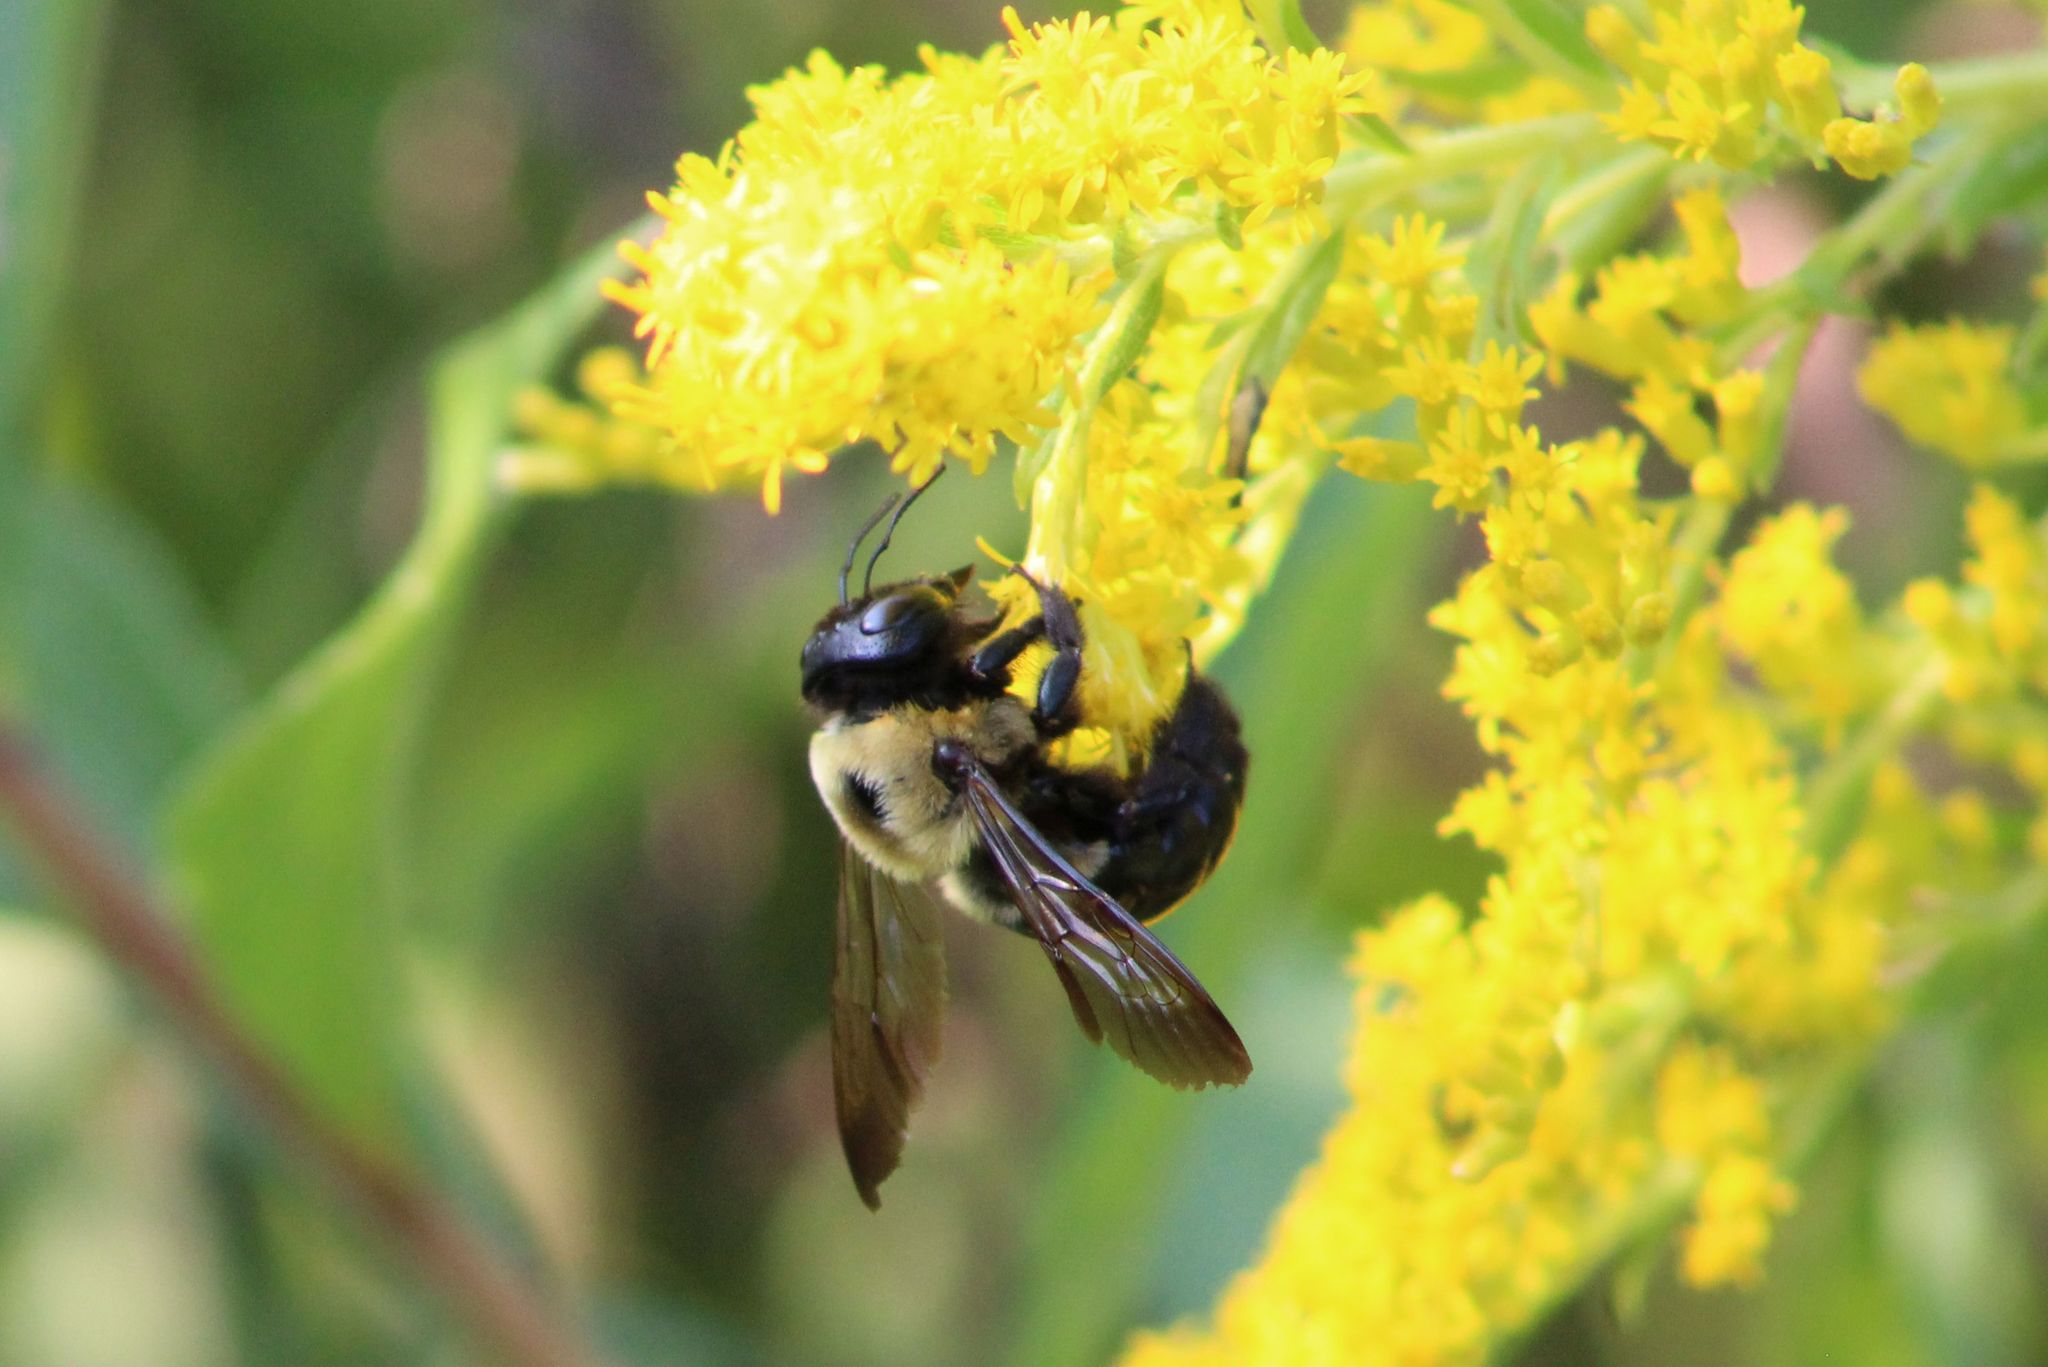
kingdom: Animalia
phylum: Arthropoda
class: Insecta
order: Hymenoptera
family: Apidae
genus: Xylocopa
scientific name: Xylocopa virginica
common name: Carpenter bee
